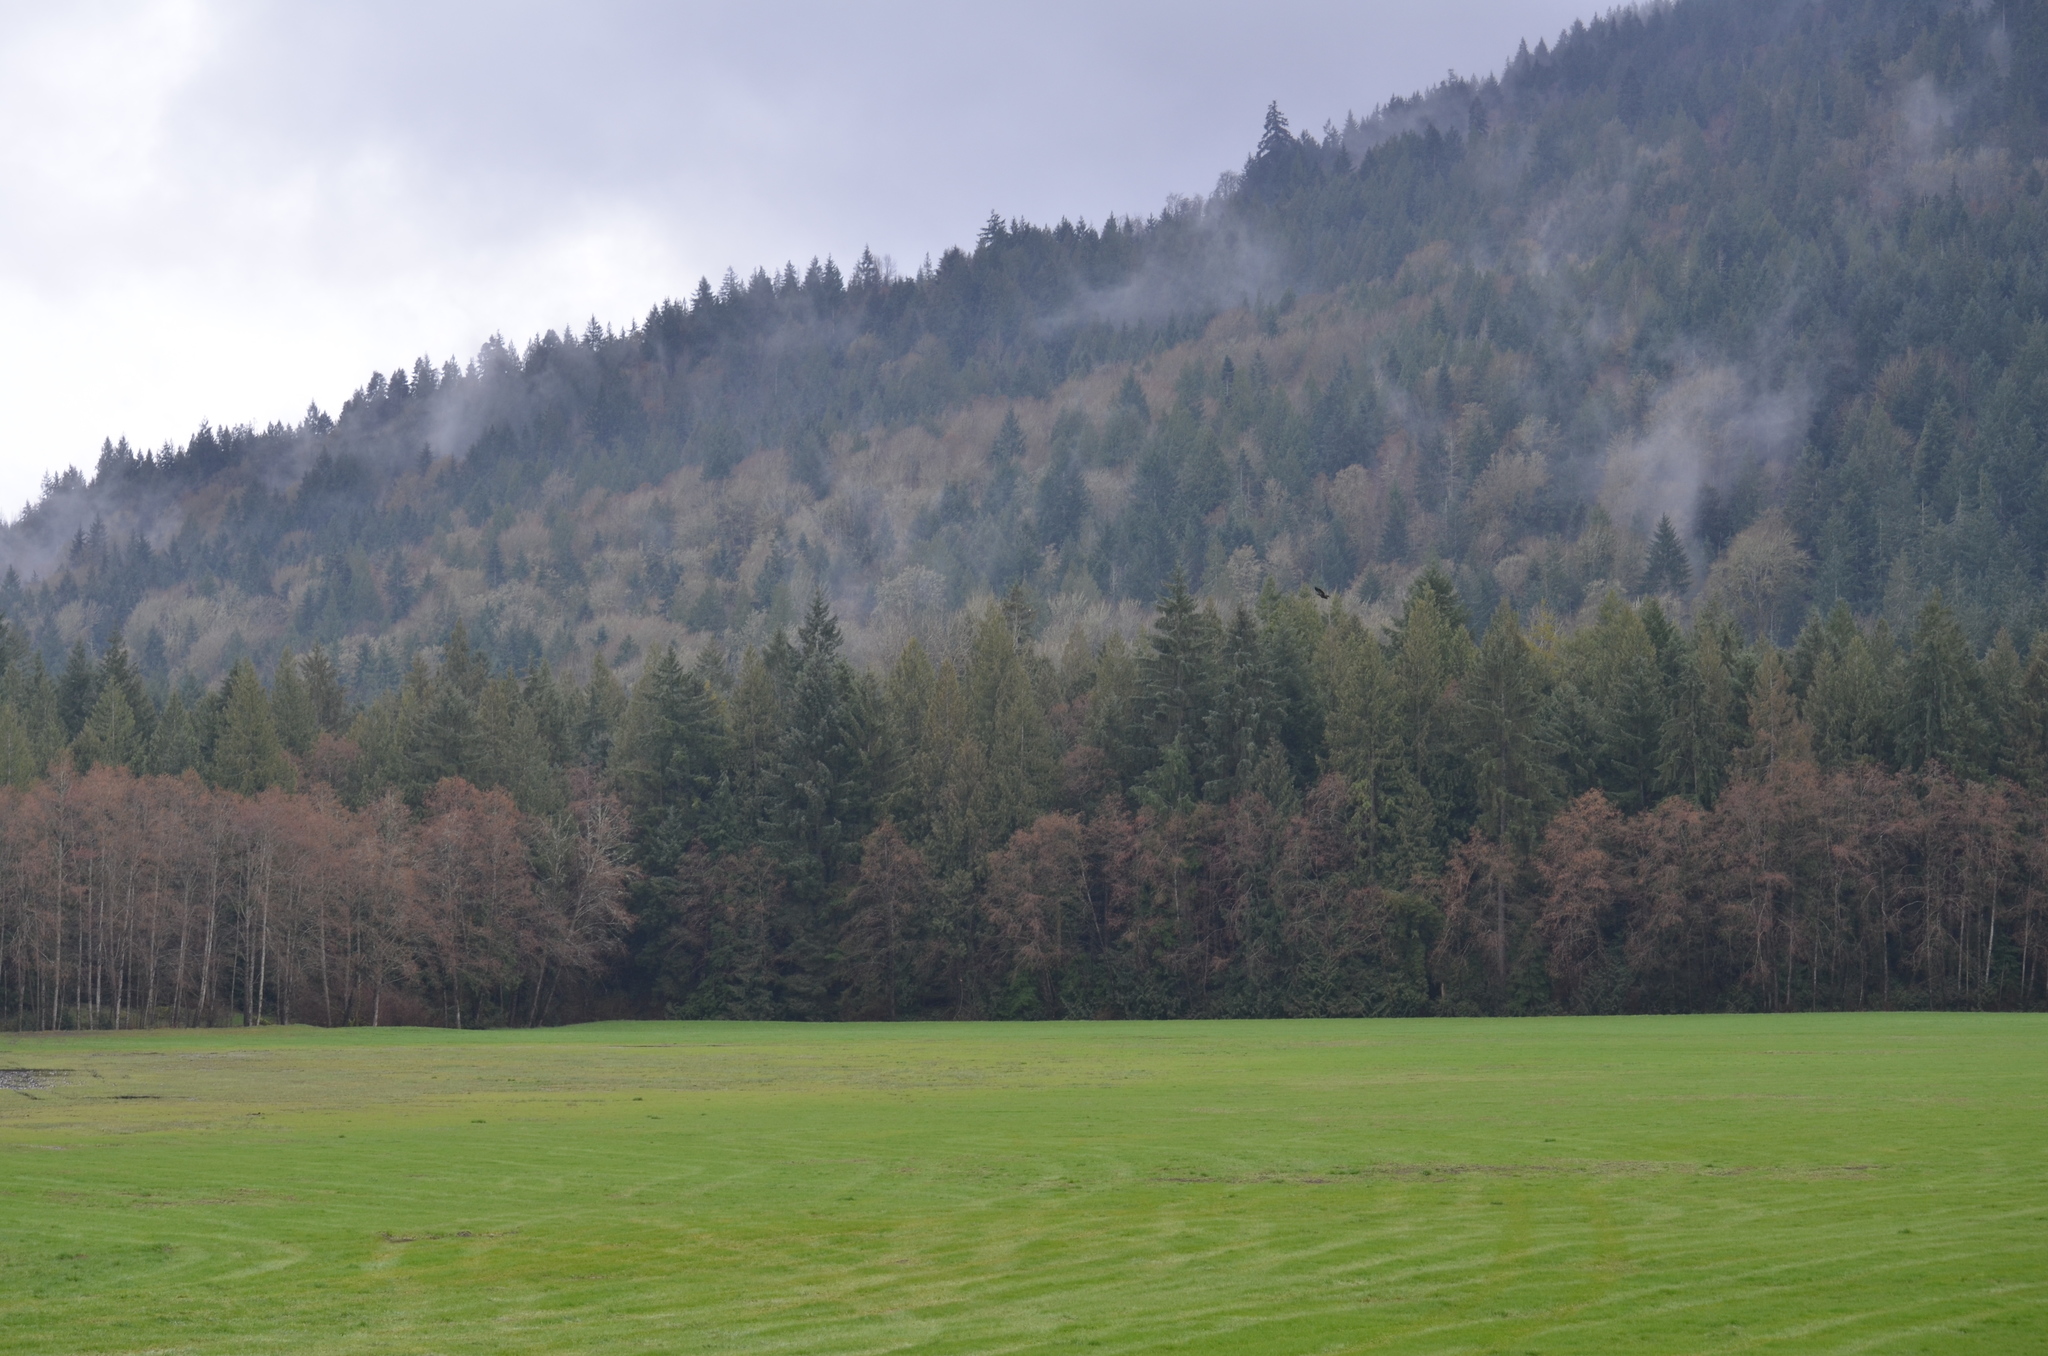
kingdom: Animalia
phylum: Chordata
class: Aves
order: Accipitriformes
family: Accipitridae
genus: Haliaeetus
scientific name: Haliaeetus leucocephalus
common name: Bald eagle
